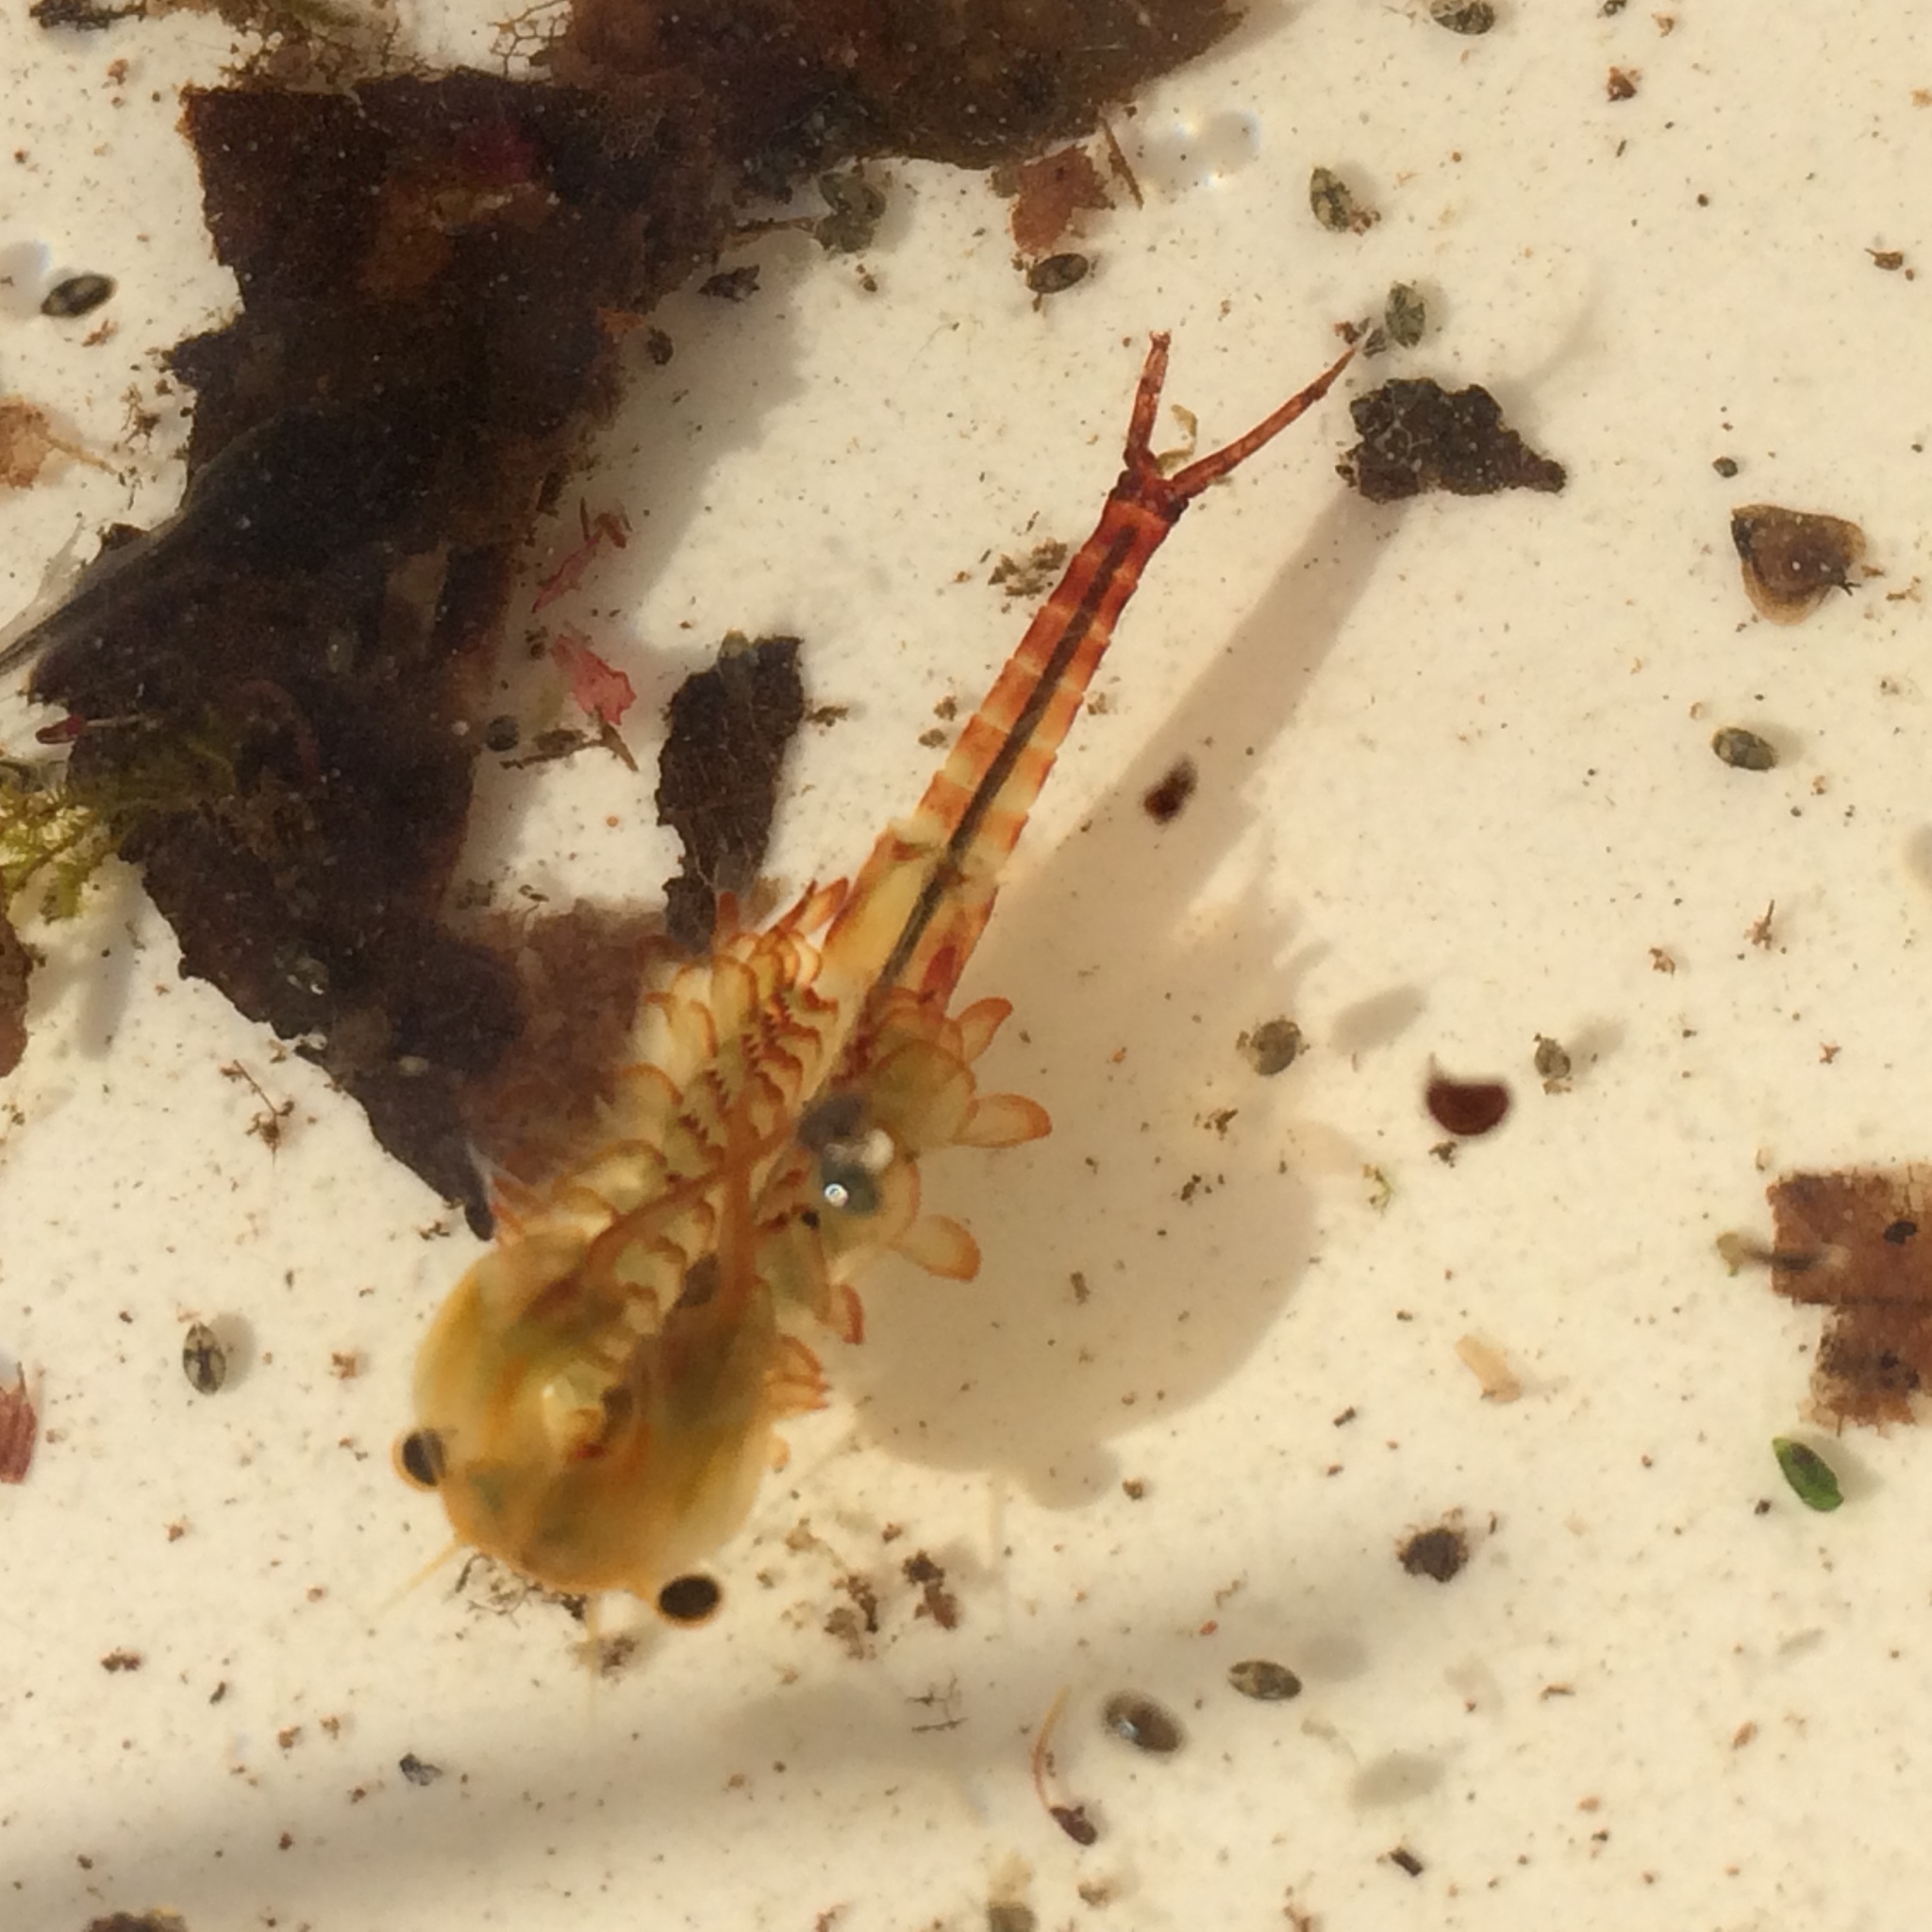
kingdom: Animalia
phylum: Arthropoda
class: Branchiopoda
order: Anostraca
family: Chirocephalidae
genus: Eubranchipus
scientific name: Eubranchipus vernalis
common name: Eastern fairy shrimp
